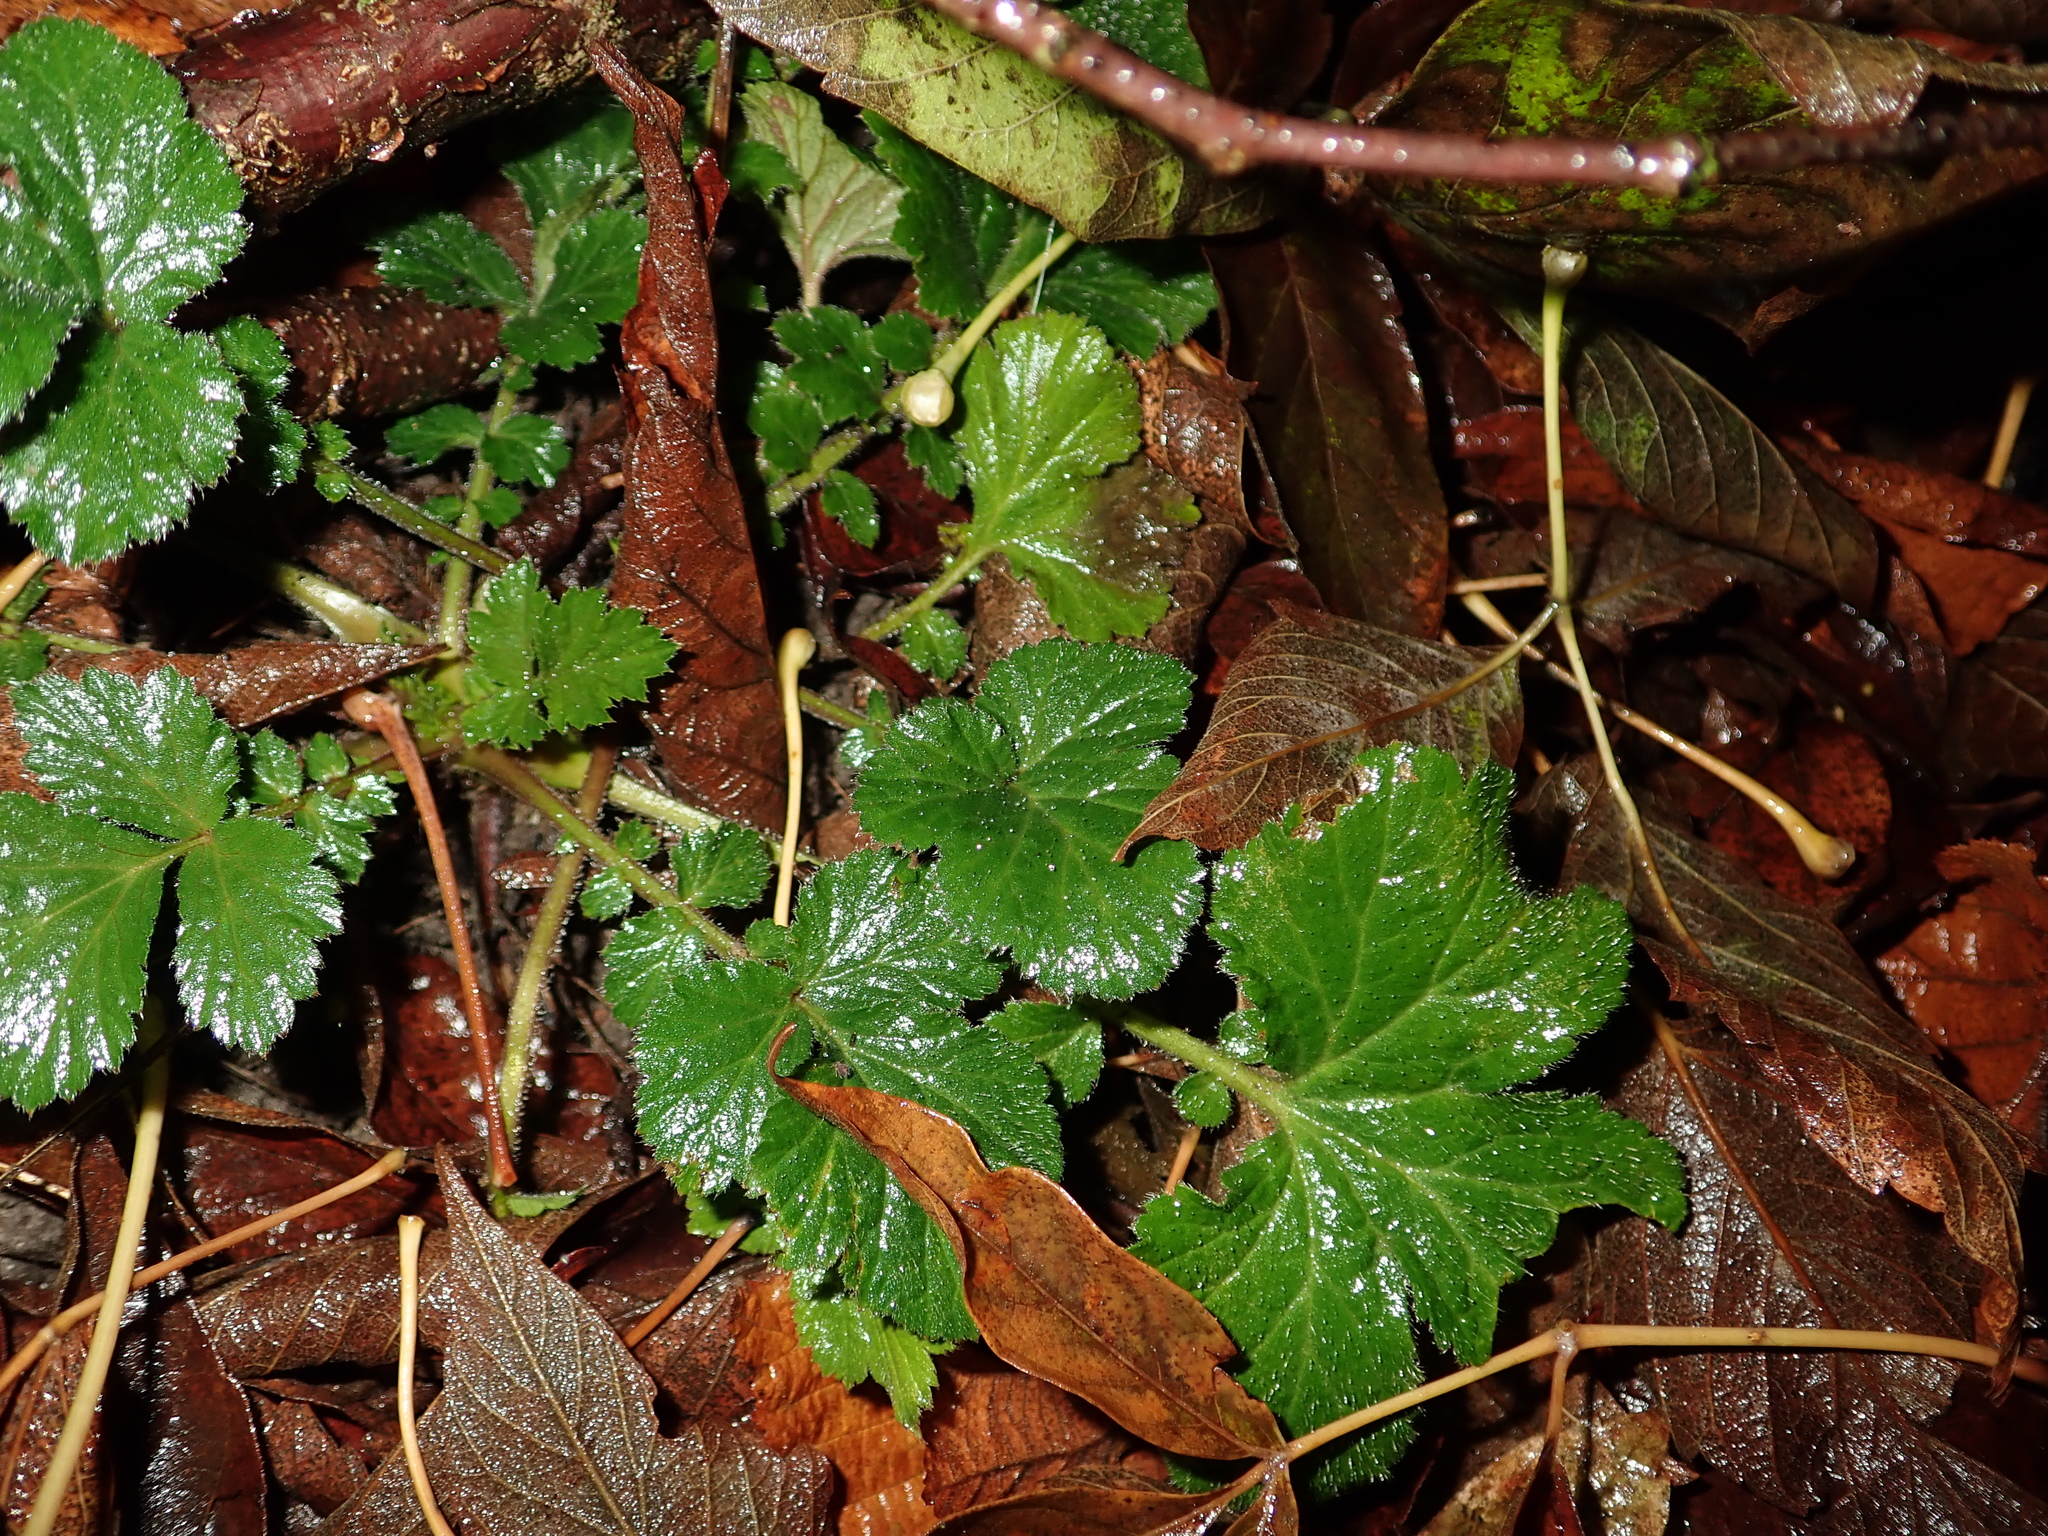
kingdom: Plantae
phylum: Tracheophyta
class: Magnoliopsida
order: Rosales
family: Rosaceae
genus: Geum
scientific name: Geum urbanum
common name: Wood avens
